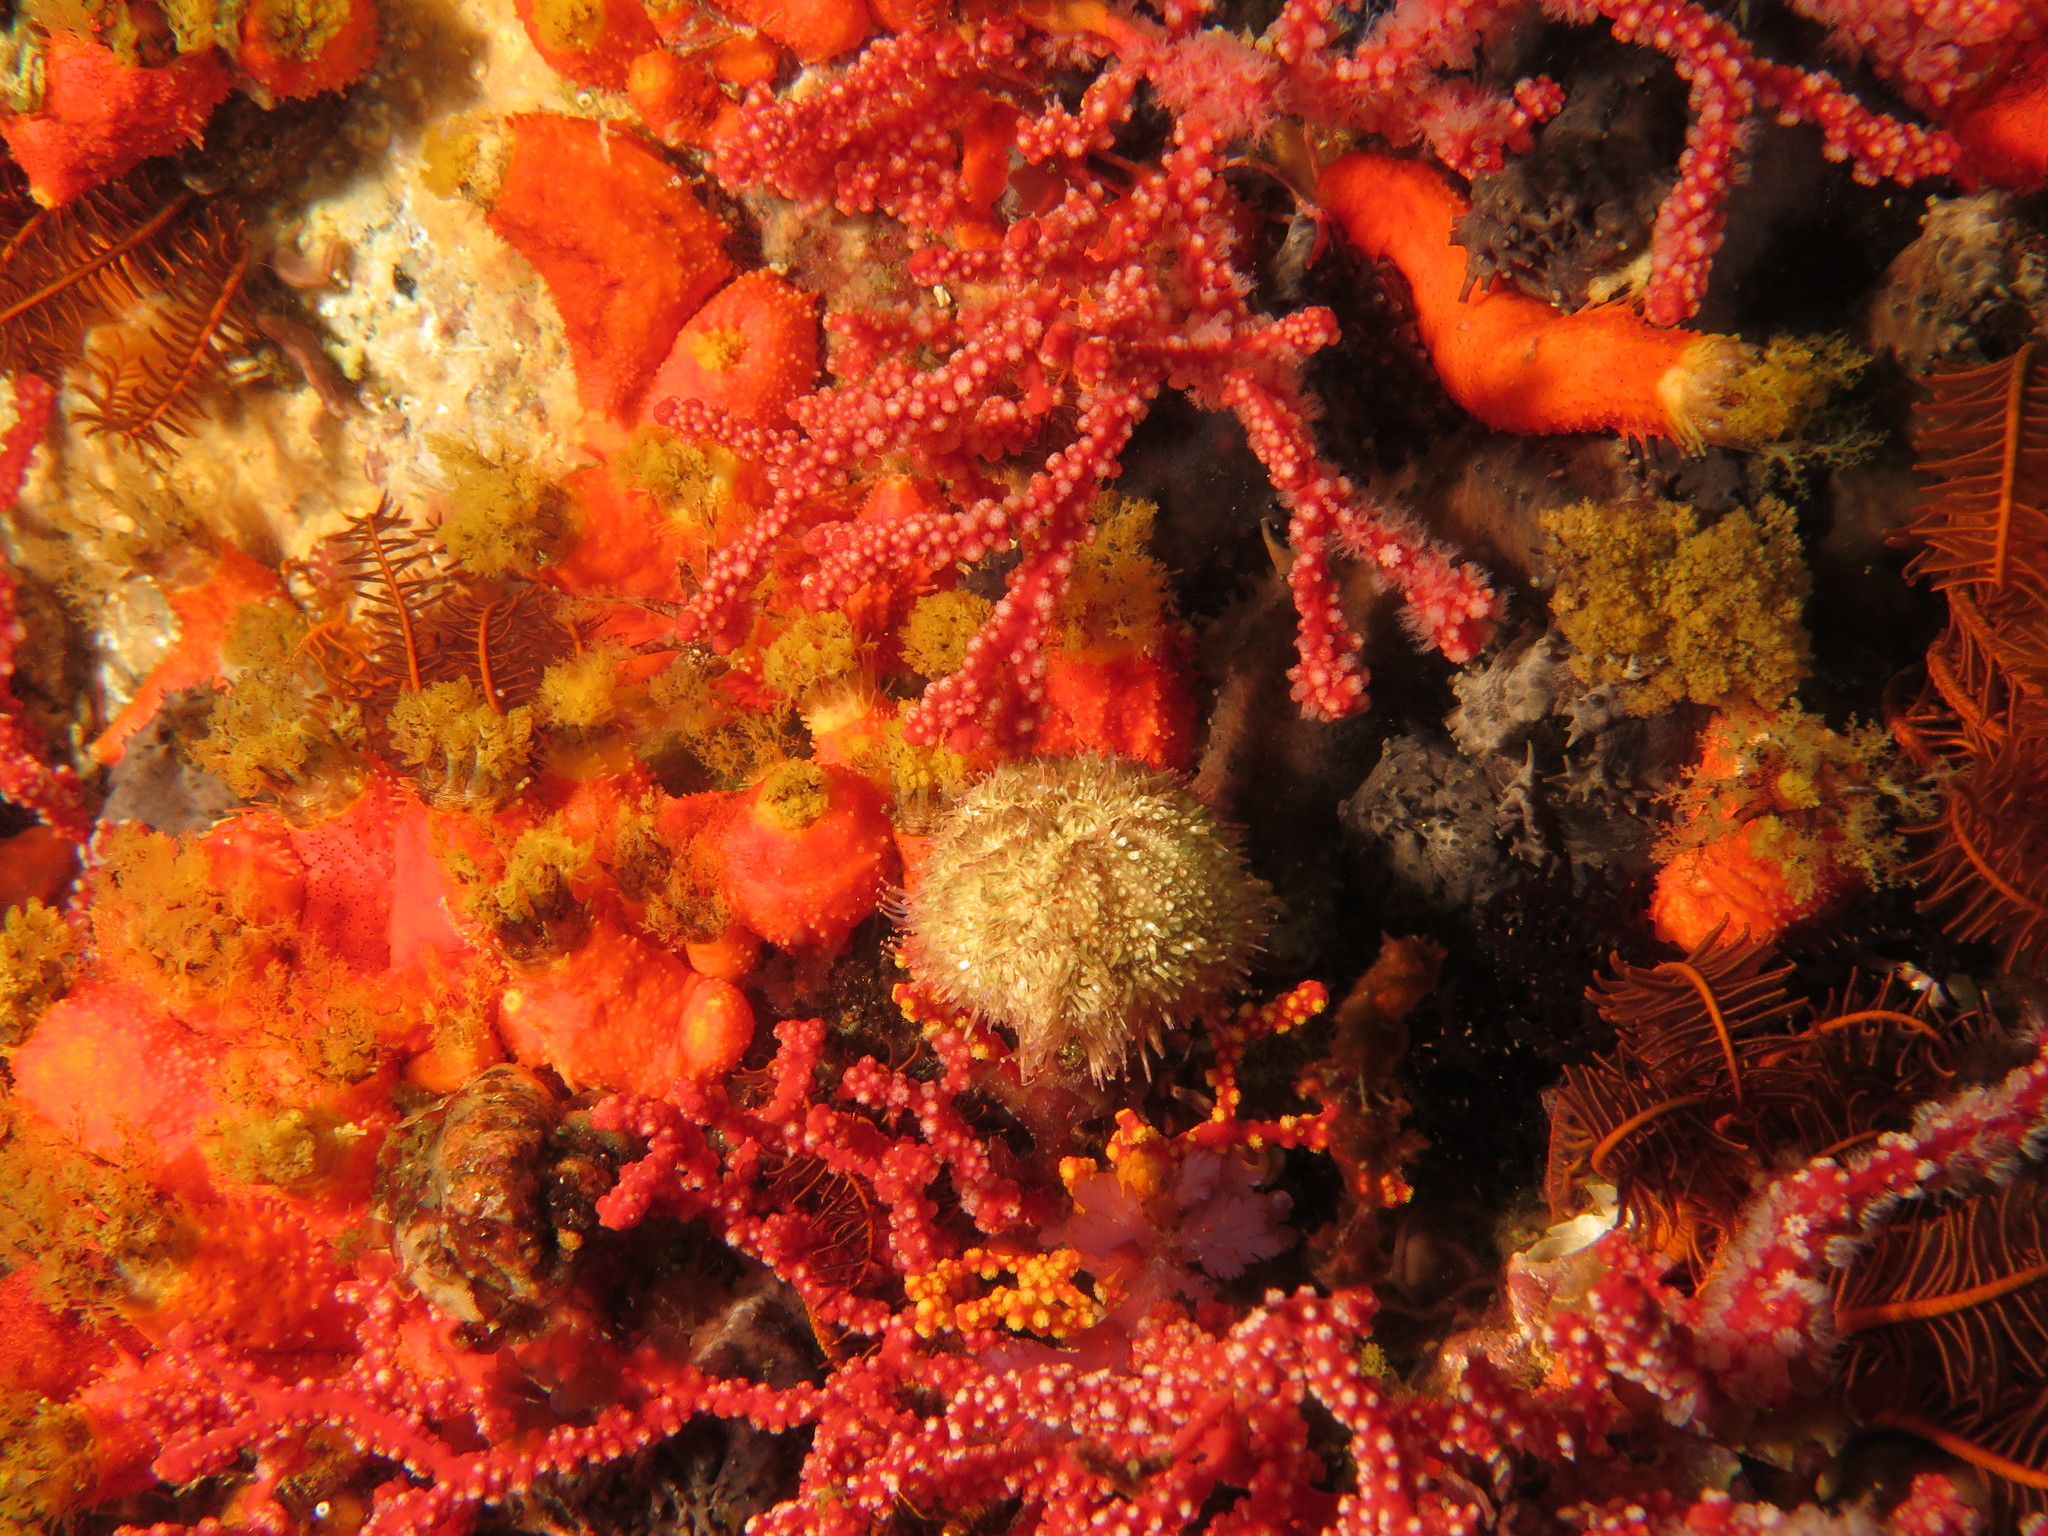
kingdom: Animalia
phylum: Echinodermata
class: Echinoidea
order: Camarodonta
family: Parechinidae
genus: Parechinus
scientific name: Parechinus angulosus
